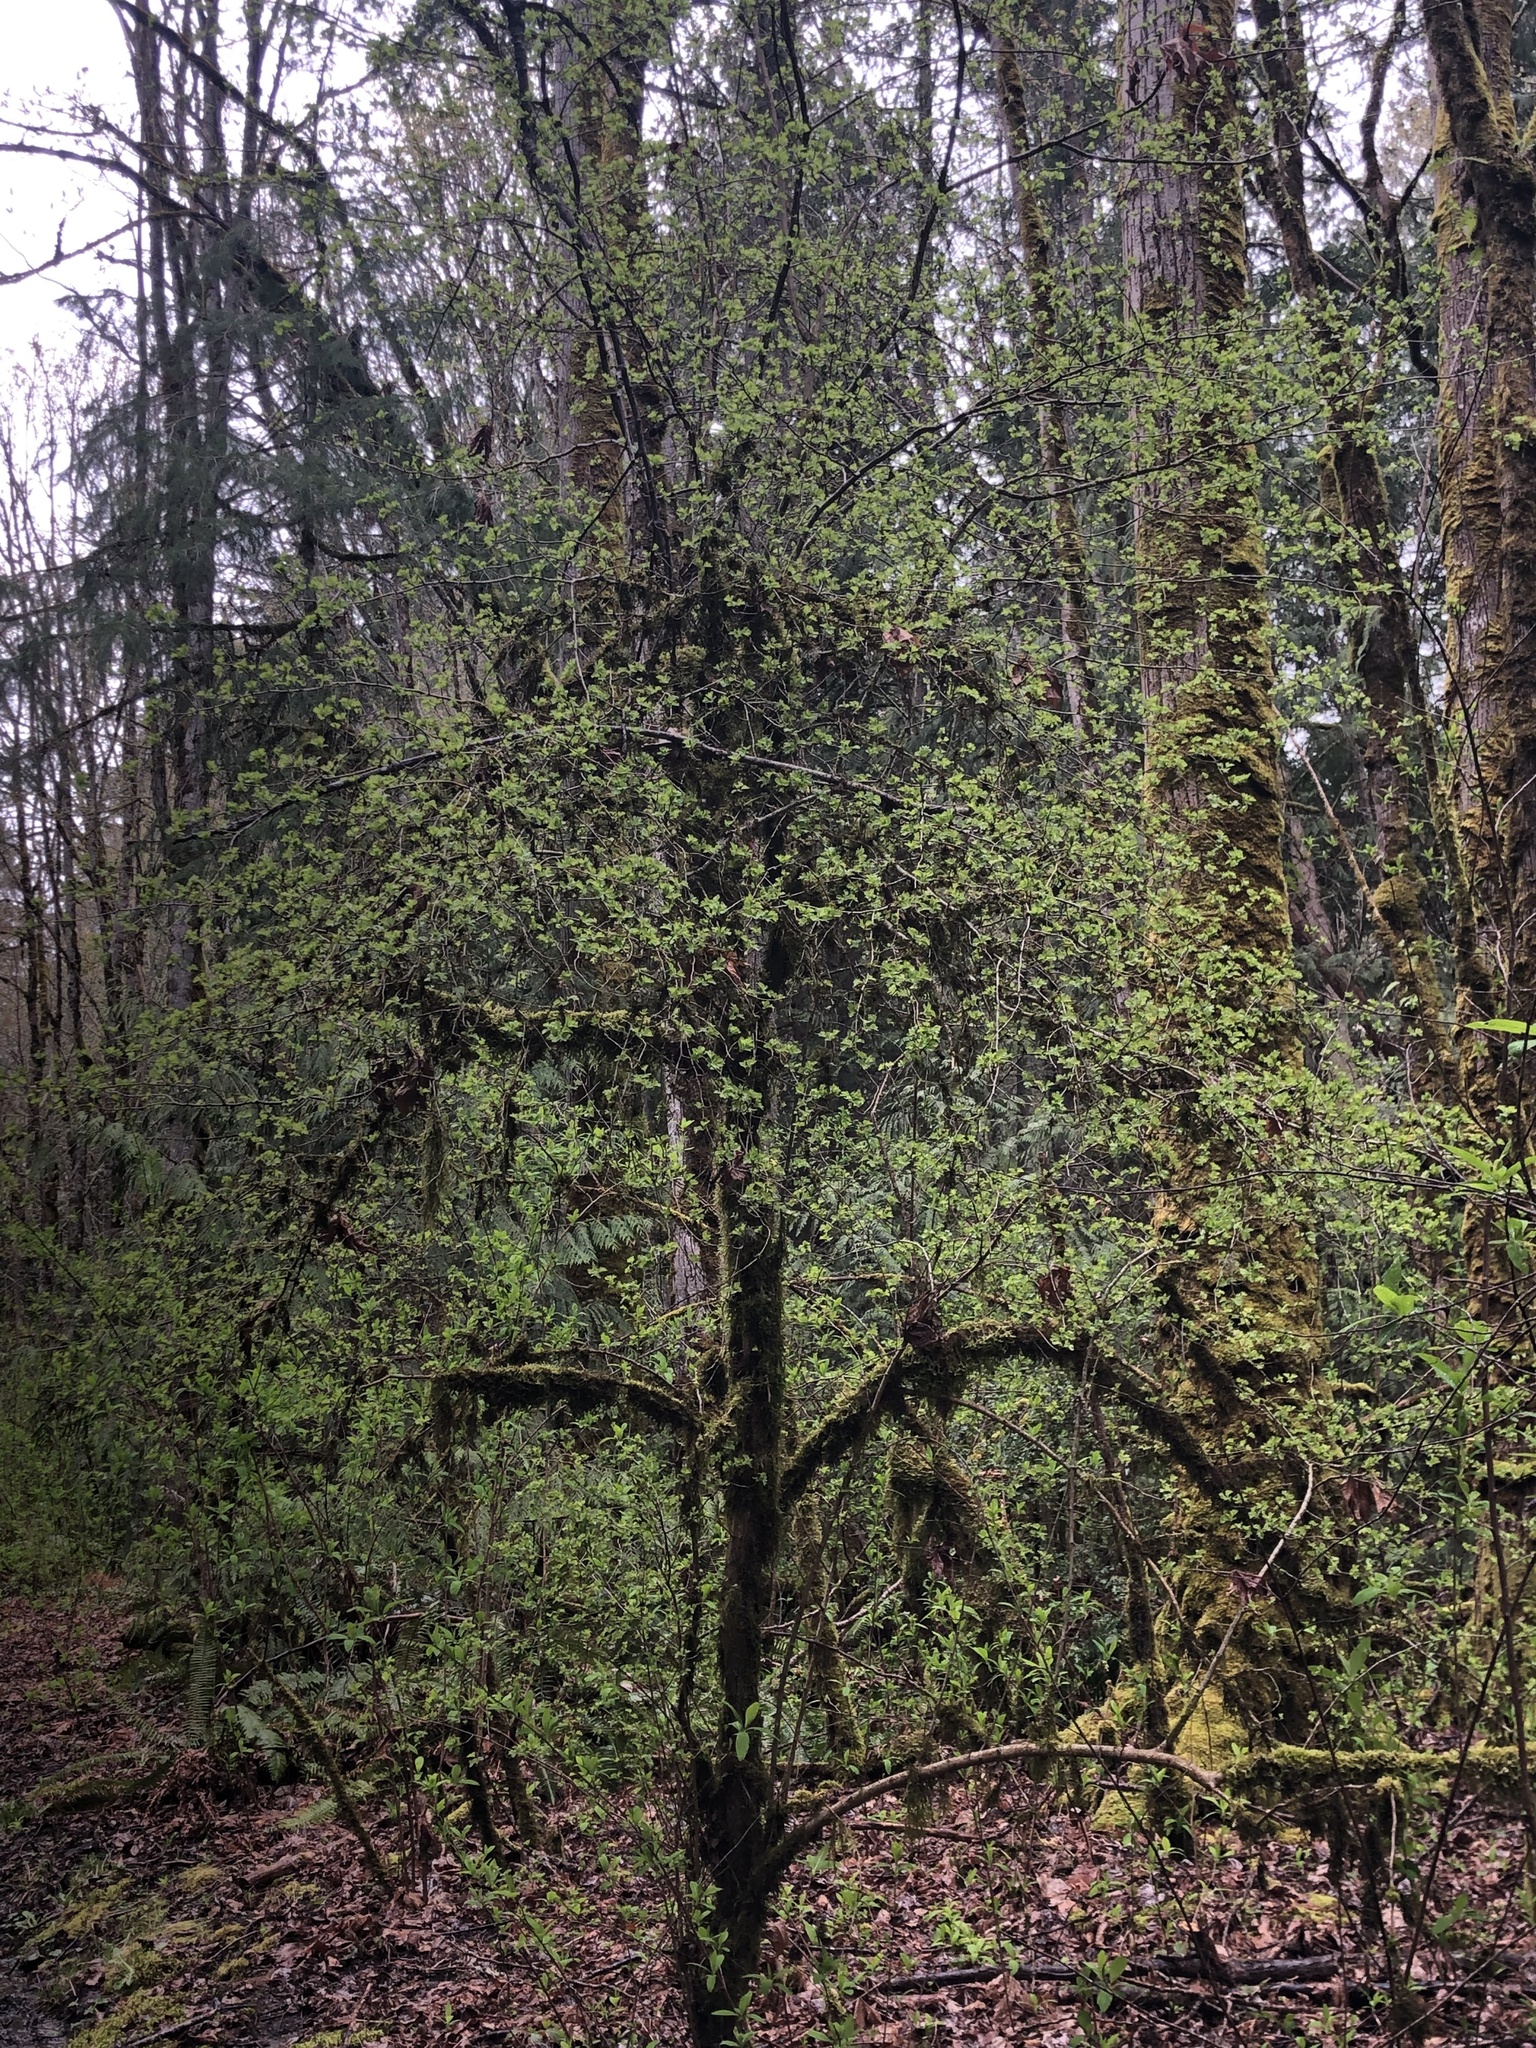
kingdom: Plantae
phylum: Tracheophyta
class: Magnoliopsida
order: Sapindales
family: Sapindaceae
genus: Acer
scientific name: Acer macrophyllum
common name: Oregon maple
